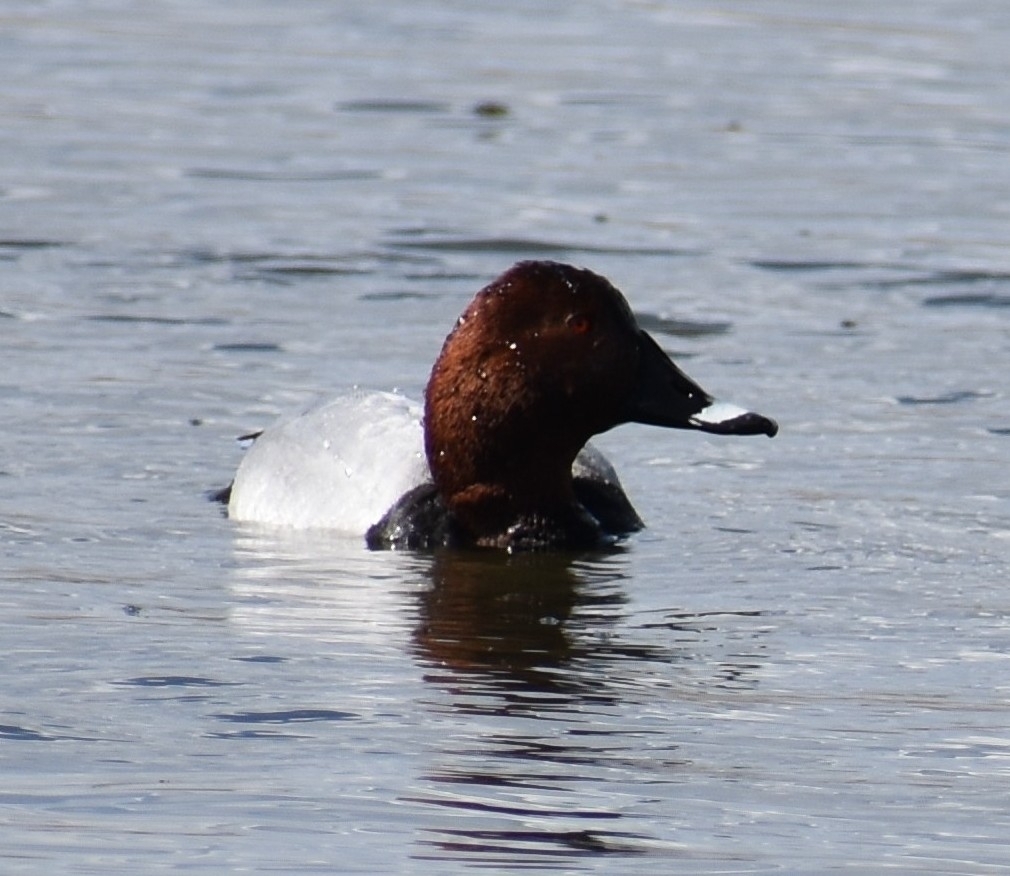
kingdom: Animalia
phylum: Chordata
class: Aves
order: Anseriformes
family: Anatidae
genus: Aythya
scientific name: Aythya ferina
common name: Common pochard
